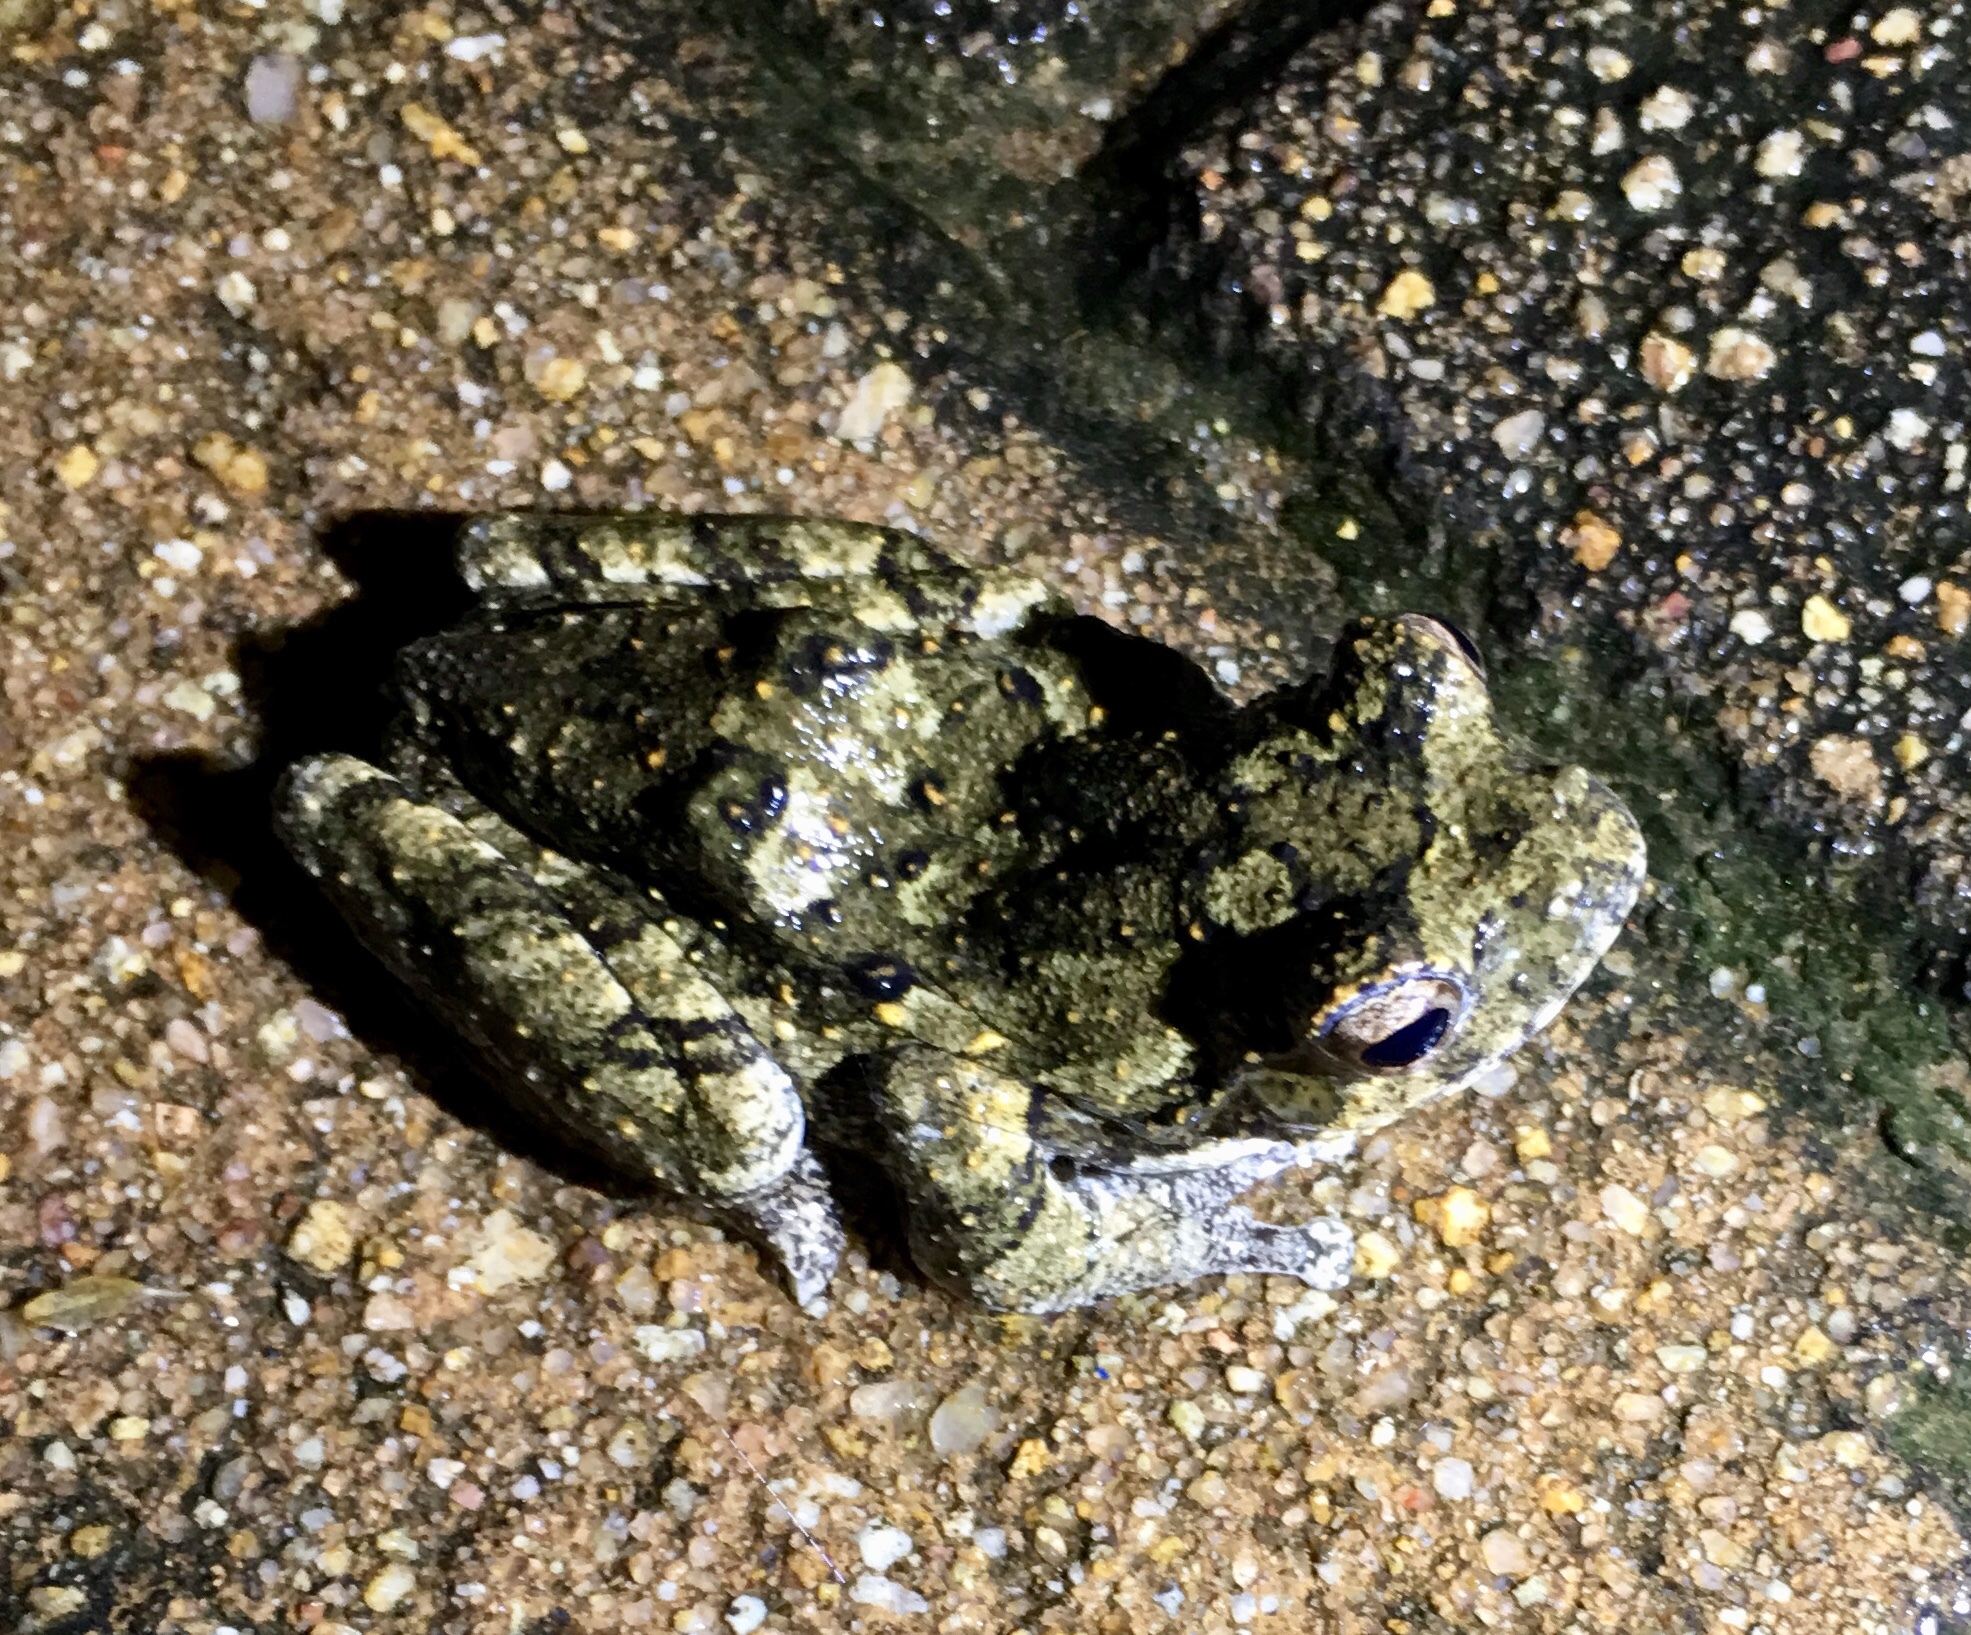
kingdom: Animalia
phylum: Chordata
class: Amphibia
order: Anura
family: Rhacophoridae
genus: Chiromantis
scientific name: Chiromantis xerampelina
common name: African gray treefrog
